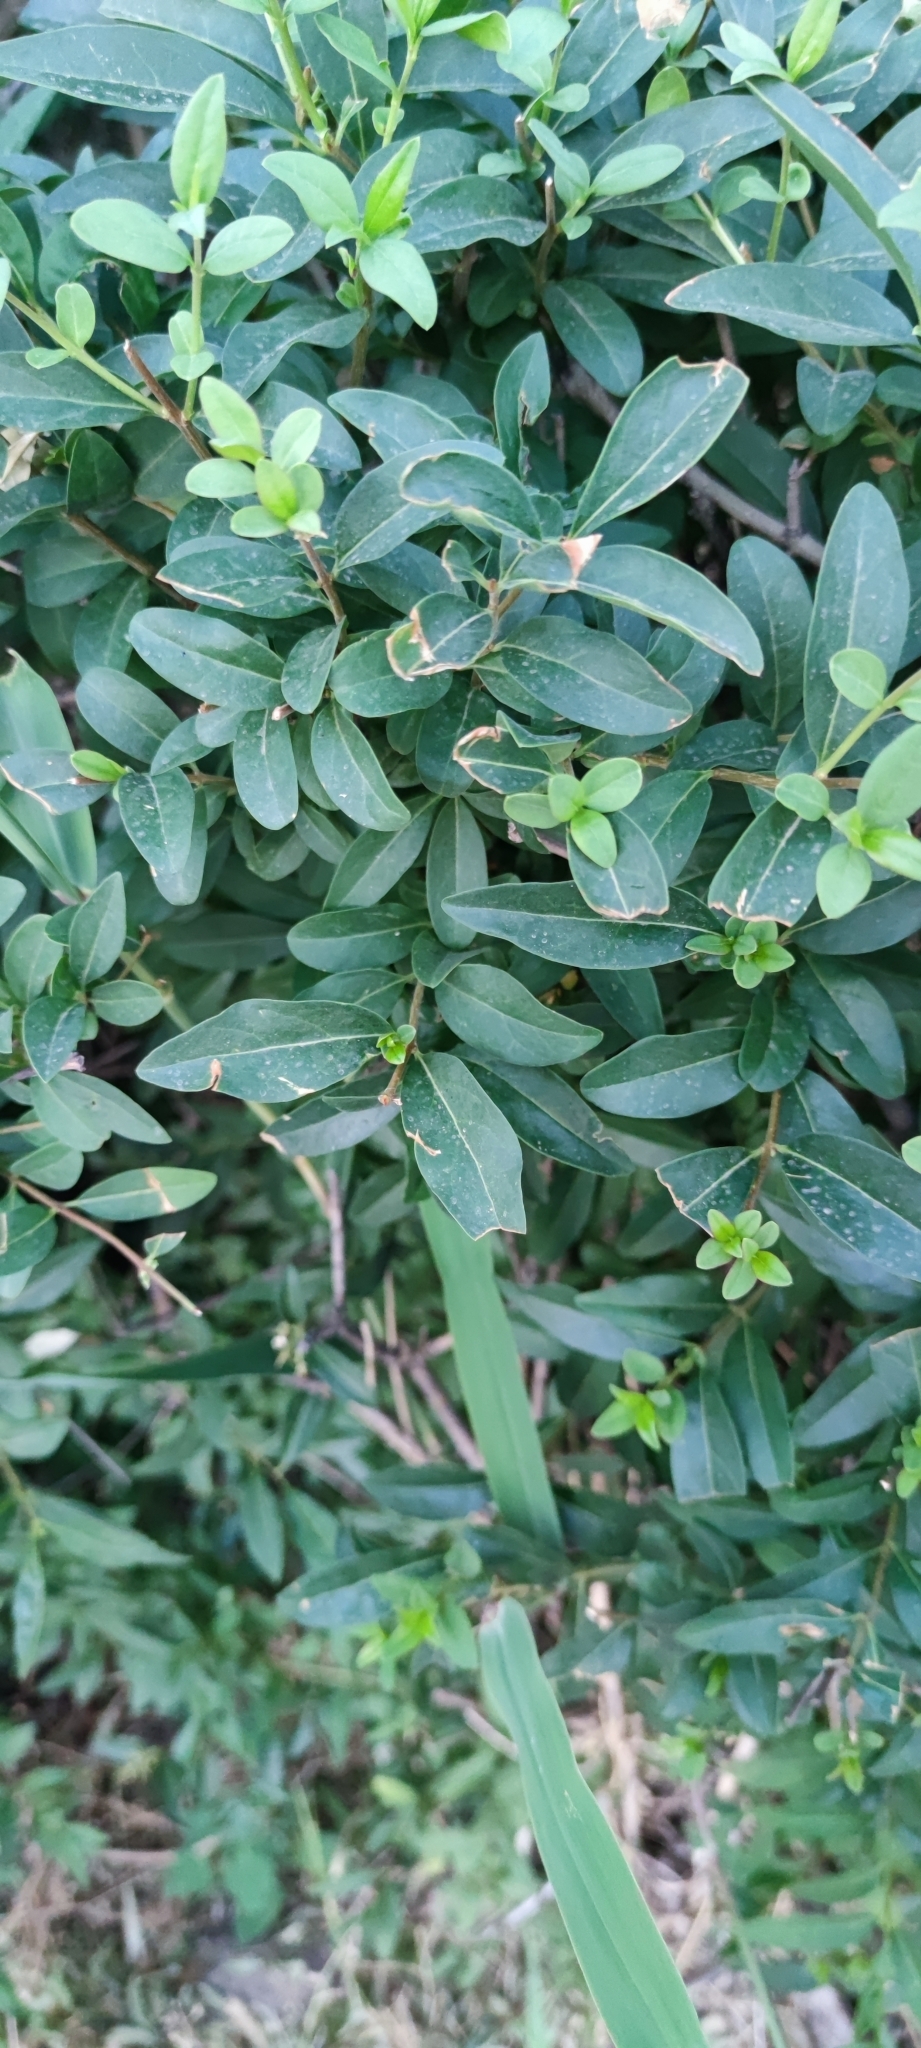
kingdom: Plantae
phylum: Tracheophyta
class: Magnoliopsida
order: Lamiales
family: Oleaceae
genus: Ligustrum
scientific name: Ligustrum vulgare
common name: Wild privet
